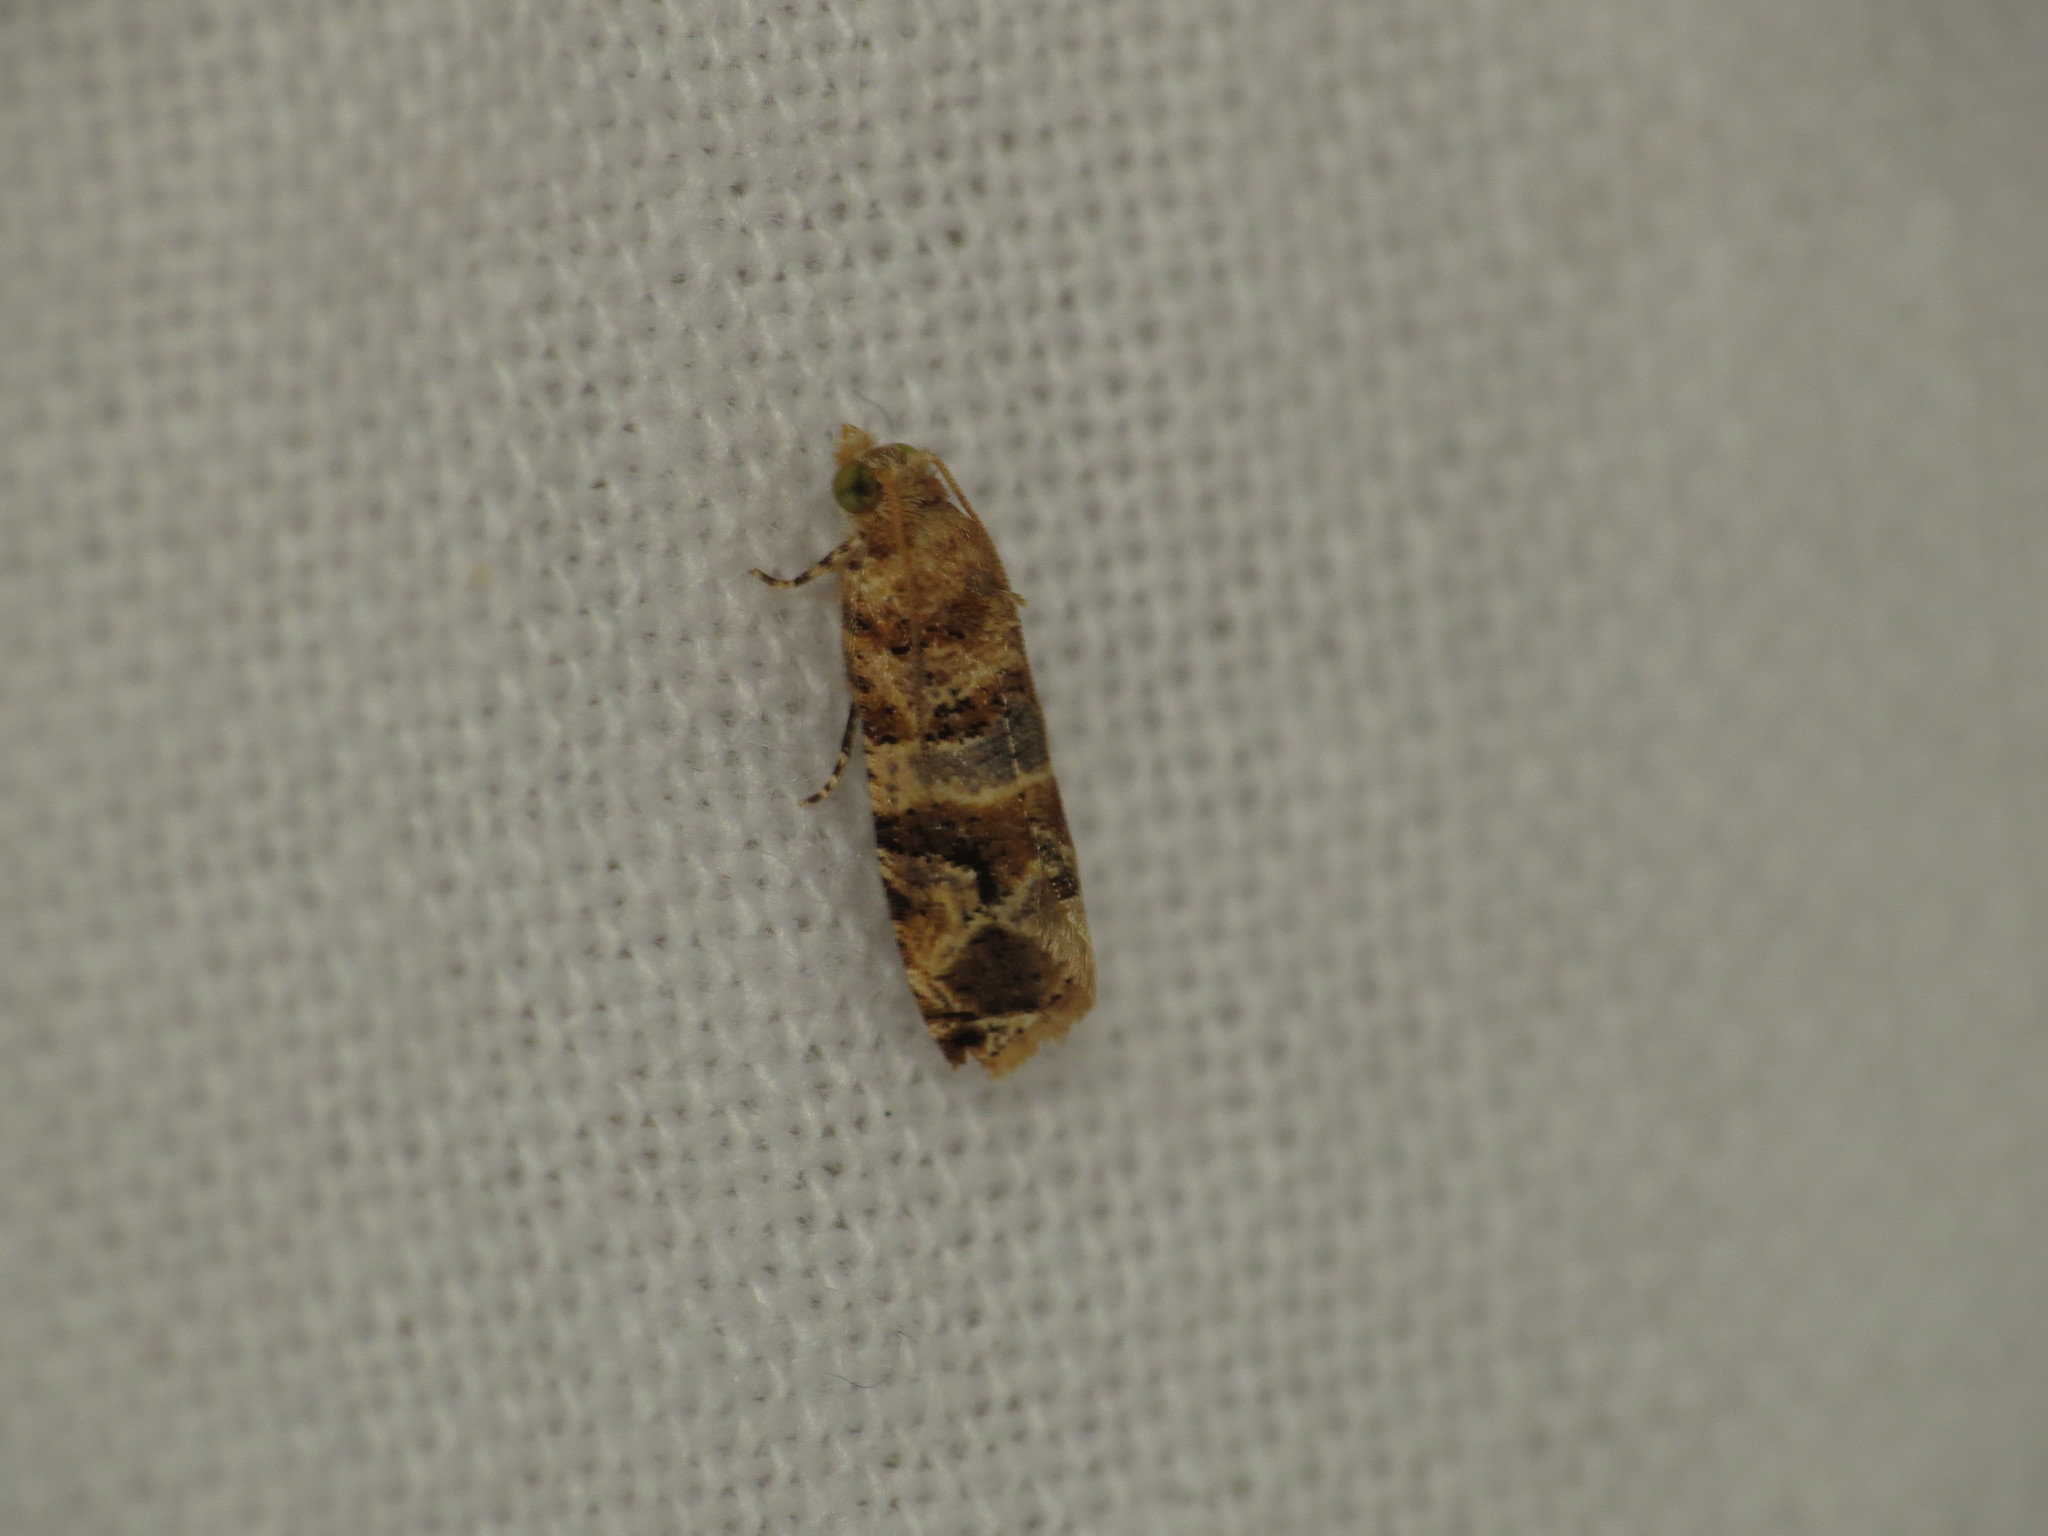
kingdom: Animalia
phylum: Arthropoda
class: Insecta
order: Lepidoptera
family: Tortricidae
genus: Lobesia
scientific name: Lobesia physophora
